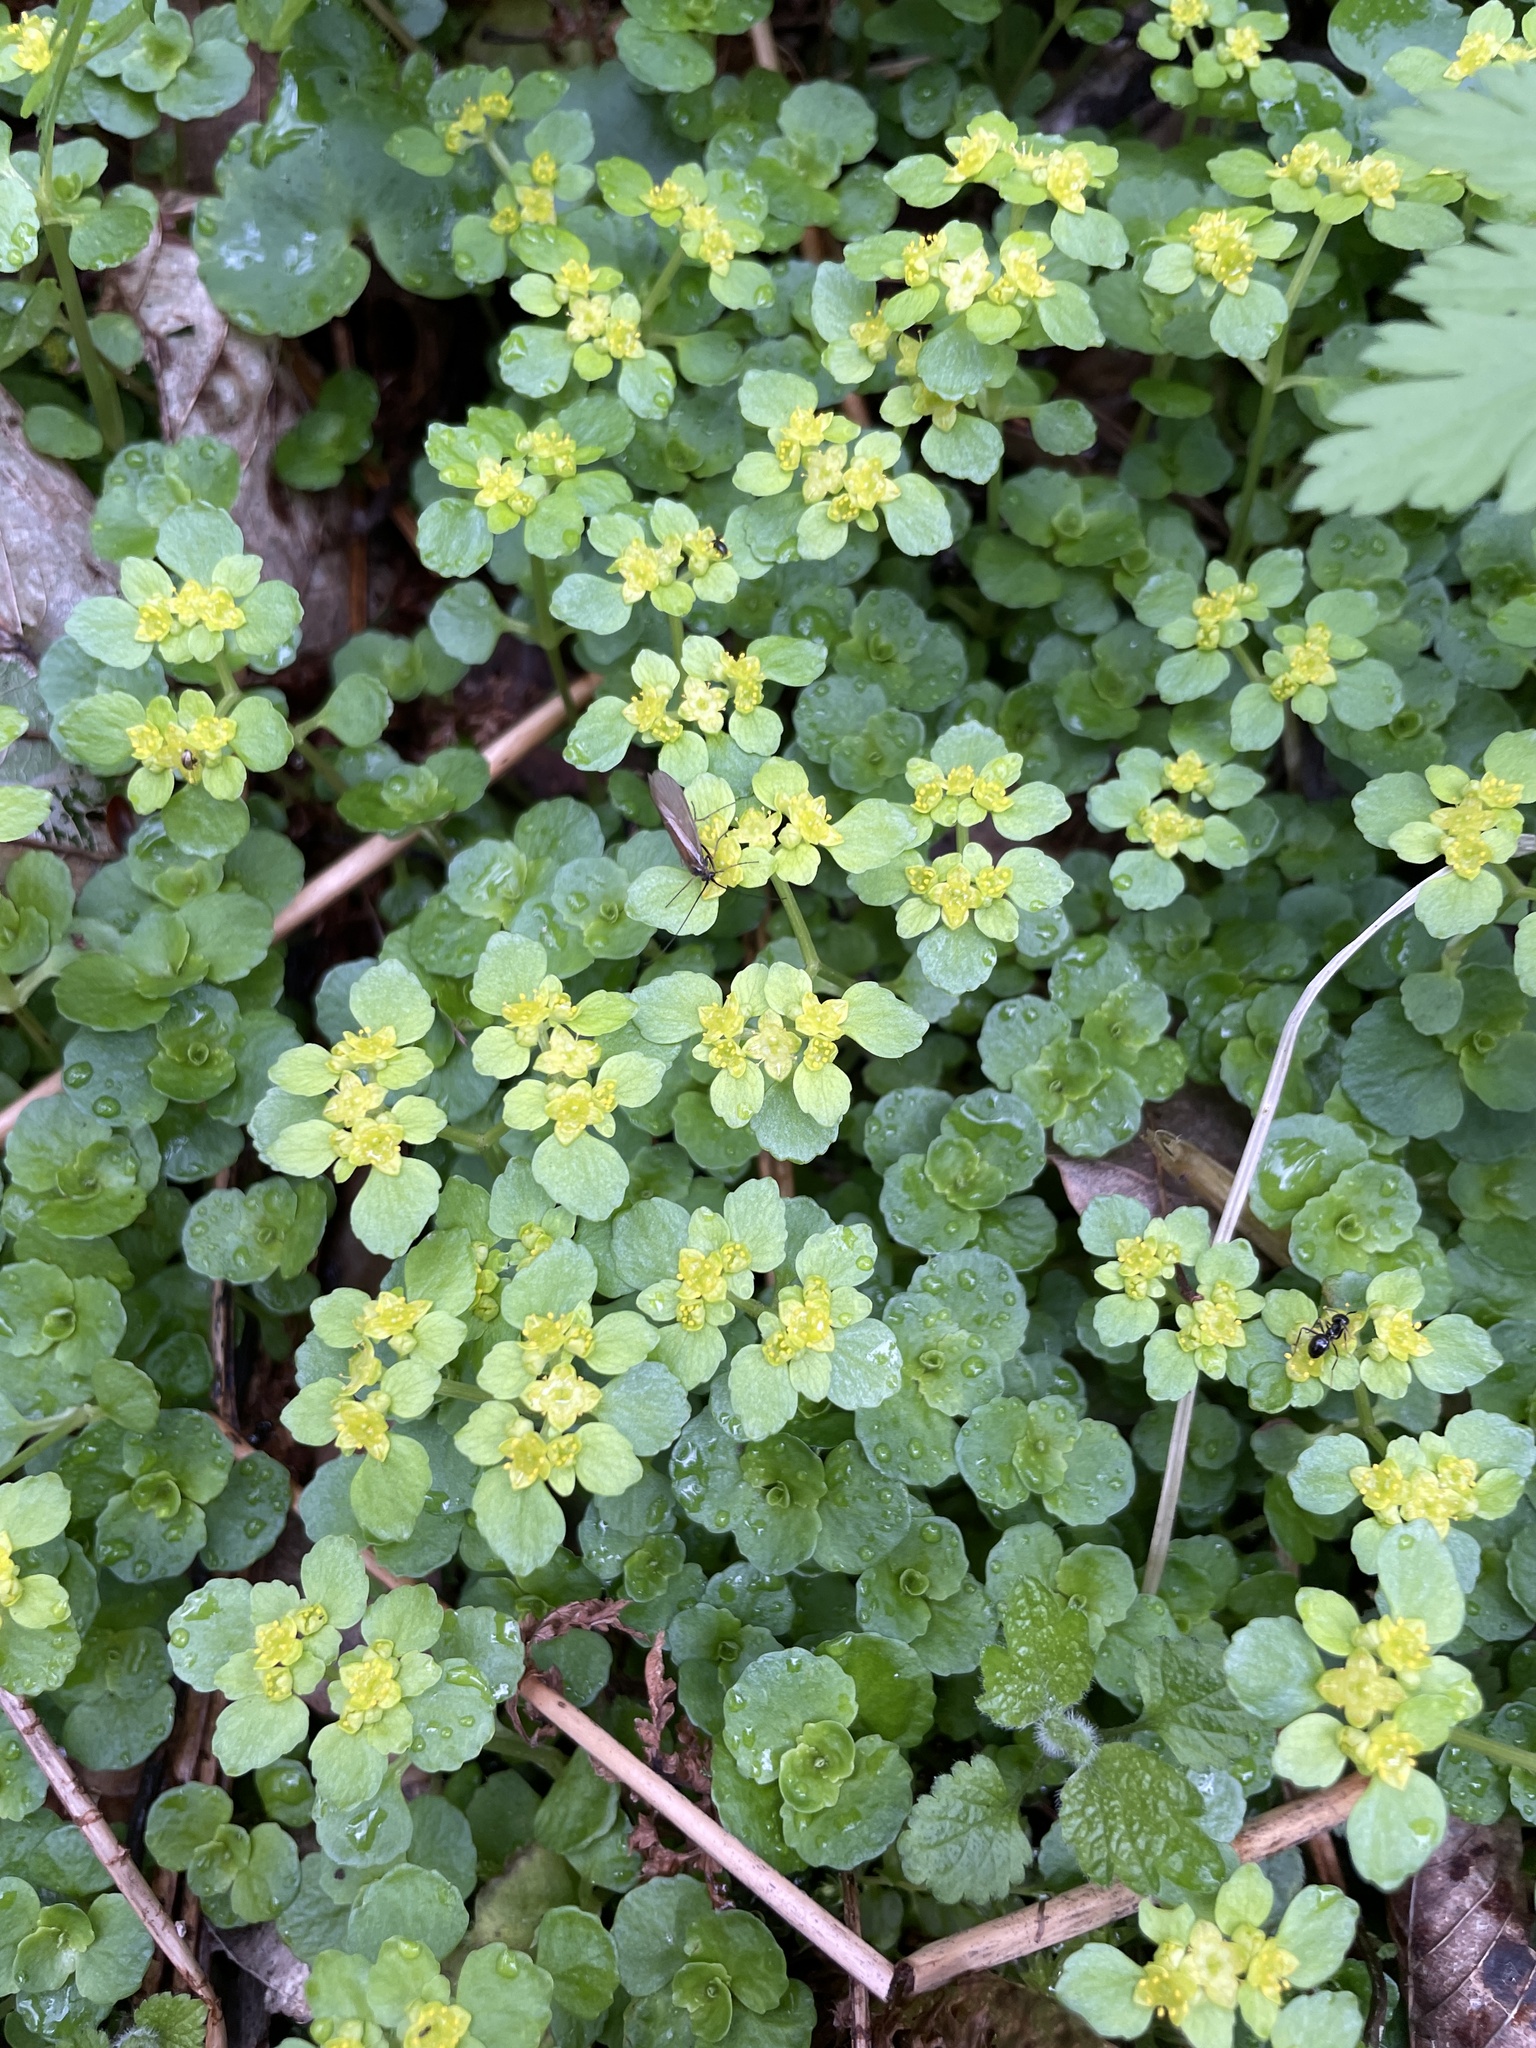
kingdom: Plantae
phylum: Tracheophyta
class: Magnoliopsida
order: Saxifragales
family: Saxifragaceae
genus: Chrysosplenium
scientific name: Chrysosplenium oppositifolium
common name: Opposite-leaved golden-saxifrage
